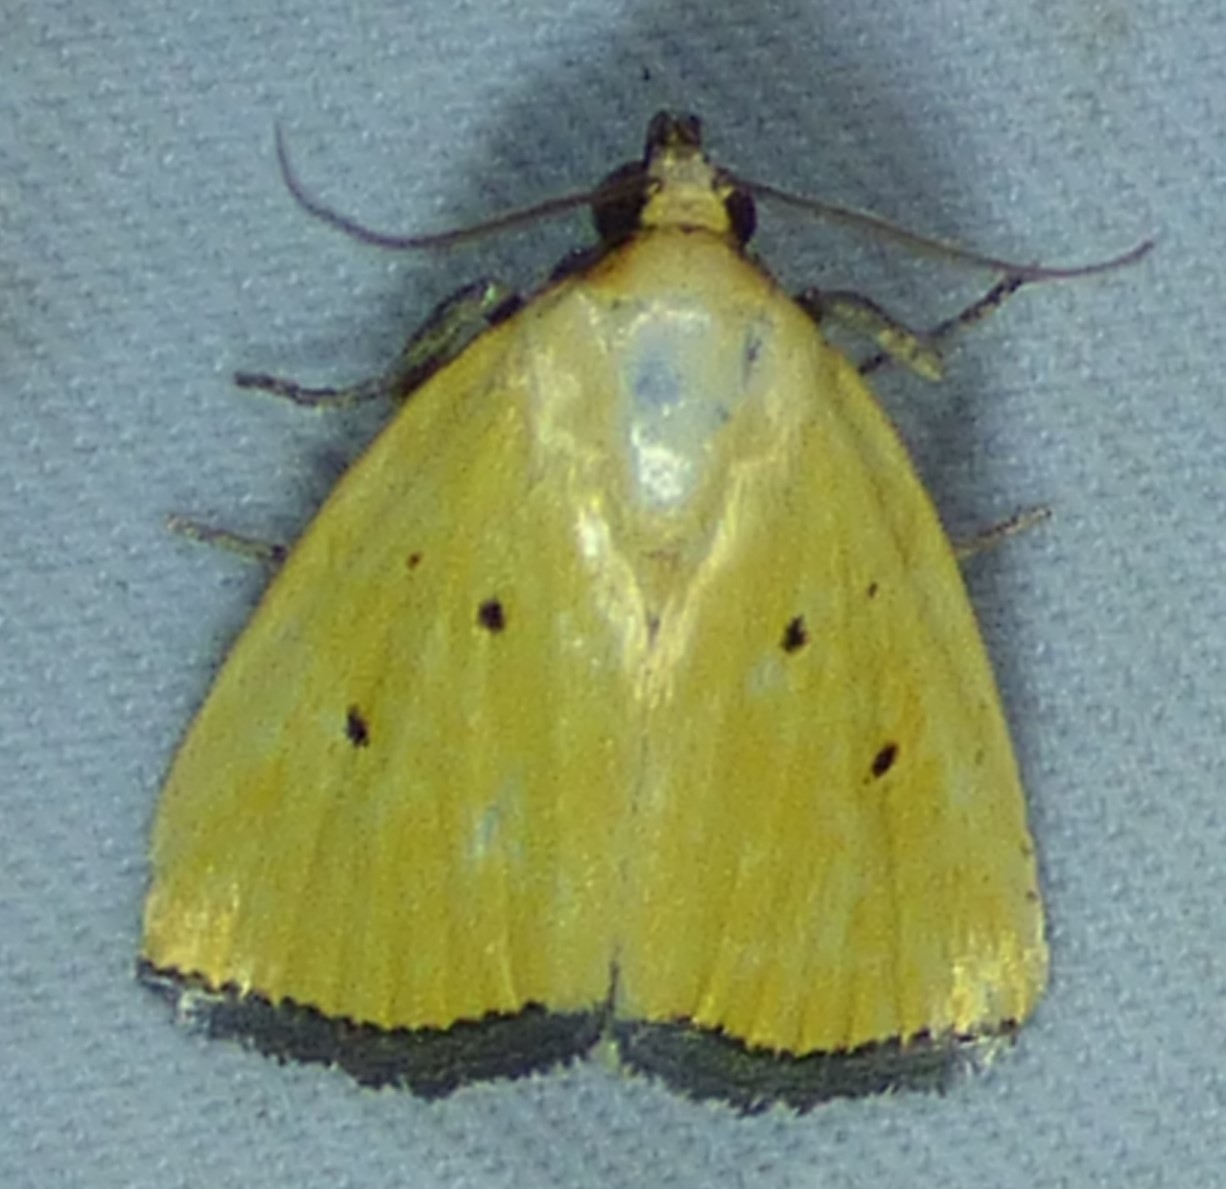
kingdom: Animalia
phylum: Arthropoda
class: Insecta
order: Lepidoptera
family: Noctuidae
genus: Marimatha
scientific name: Marimatha nigrofimbria
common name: Black-bordered lemon moth
